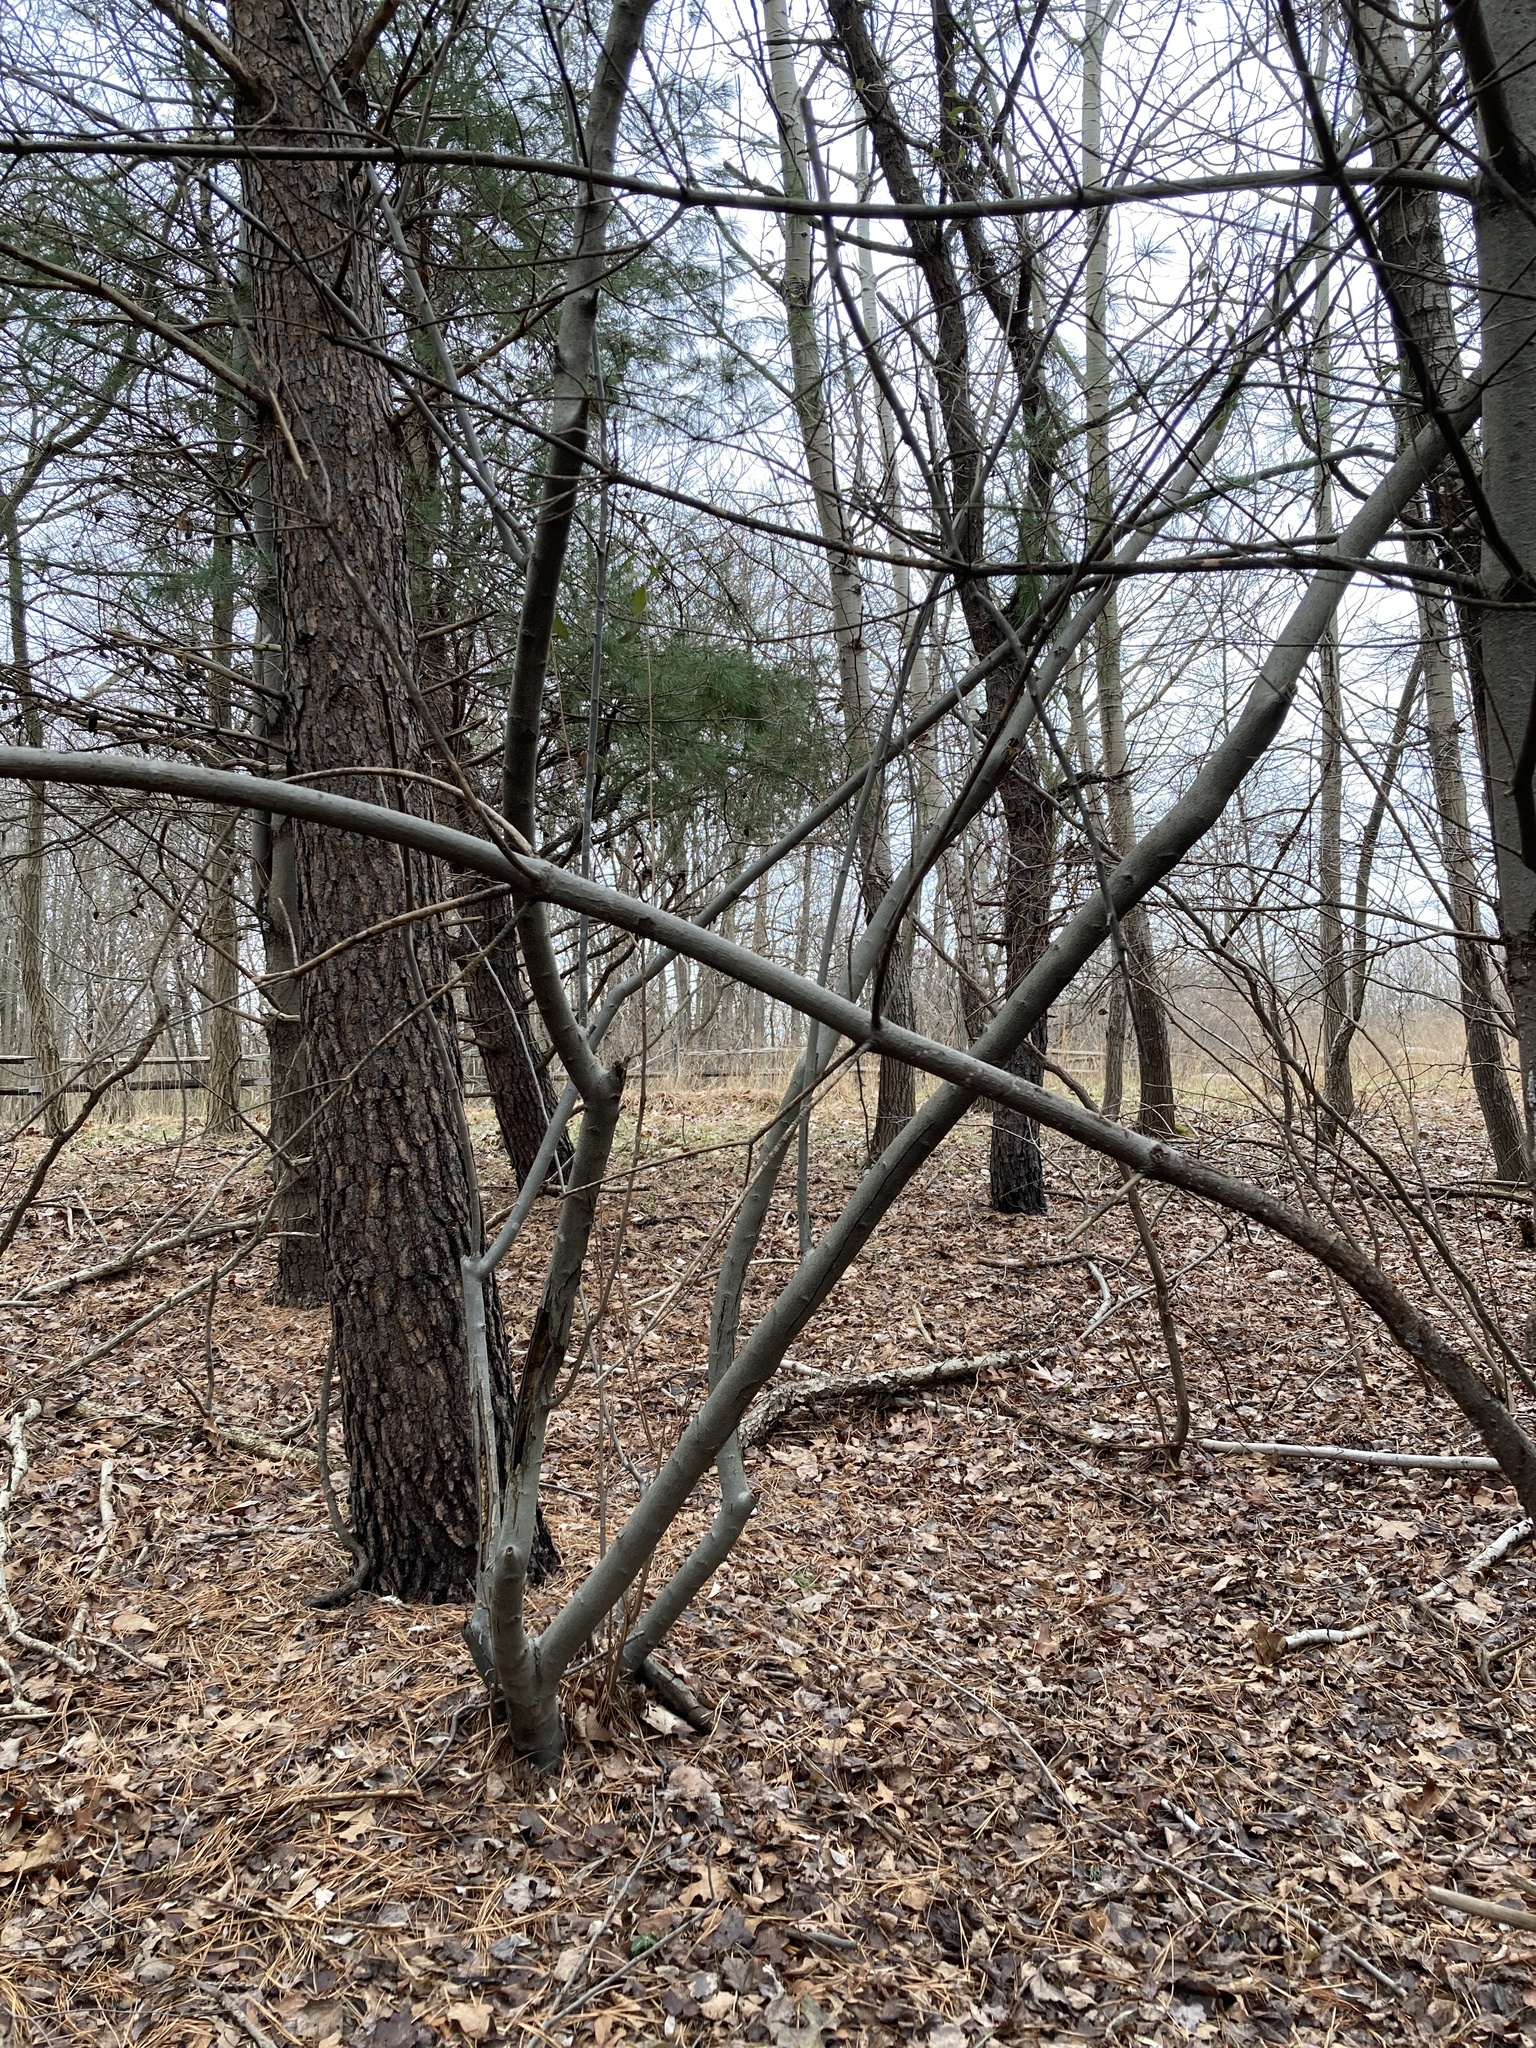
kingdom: Plantae
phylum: Tracheophyta
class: Magnoliopsida
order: Rosales
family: Elaeagnaceae
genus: Elaeagnus
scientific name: Elaeagnus umbellata
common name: Autumn olive
